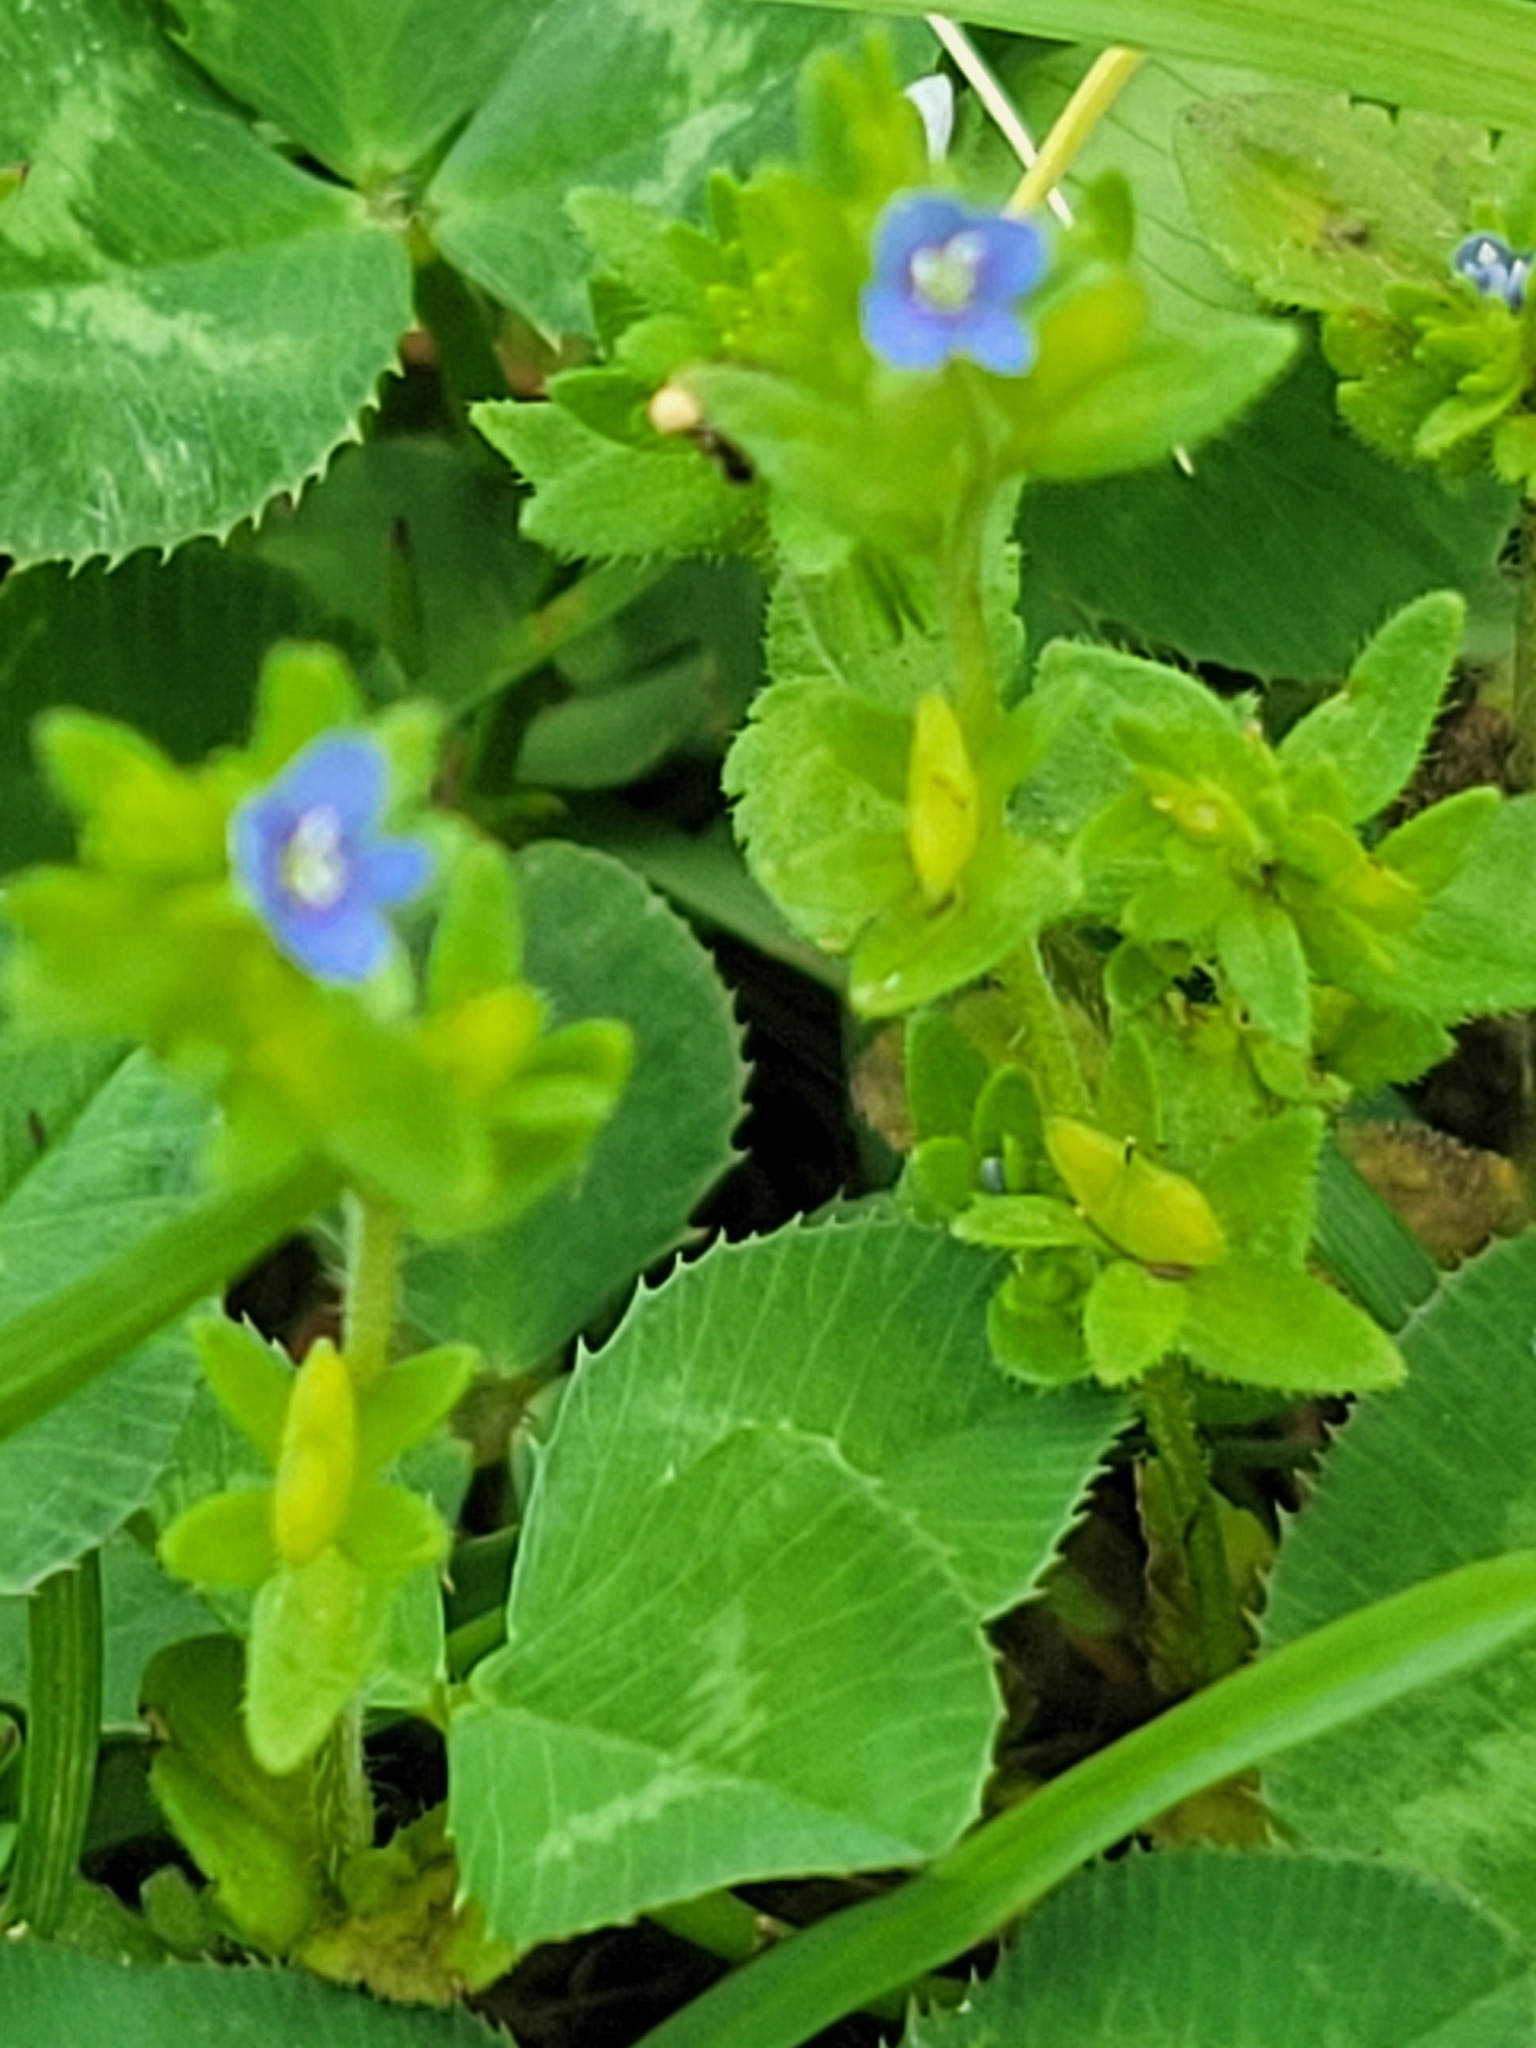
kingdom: Plantae
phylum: Tracheophyta
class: Magnoliopsida
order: Lamiales
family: Plantaginaceae
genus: Veronica
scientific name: Veronica arvensis
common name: Corn speedwell
